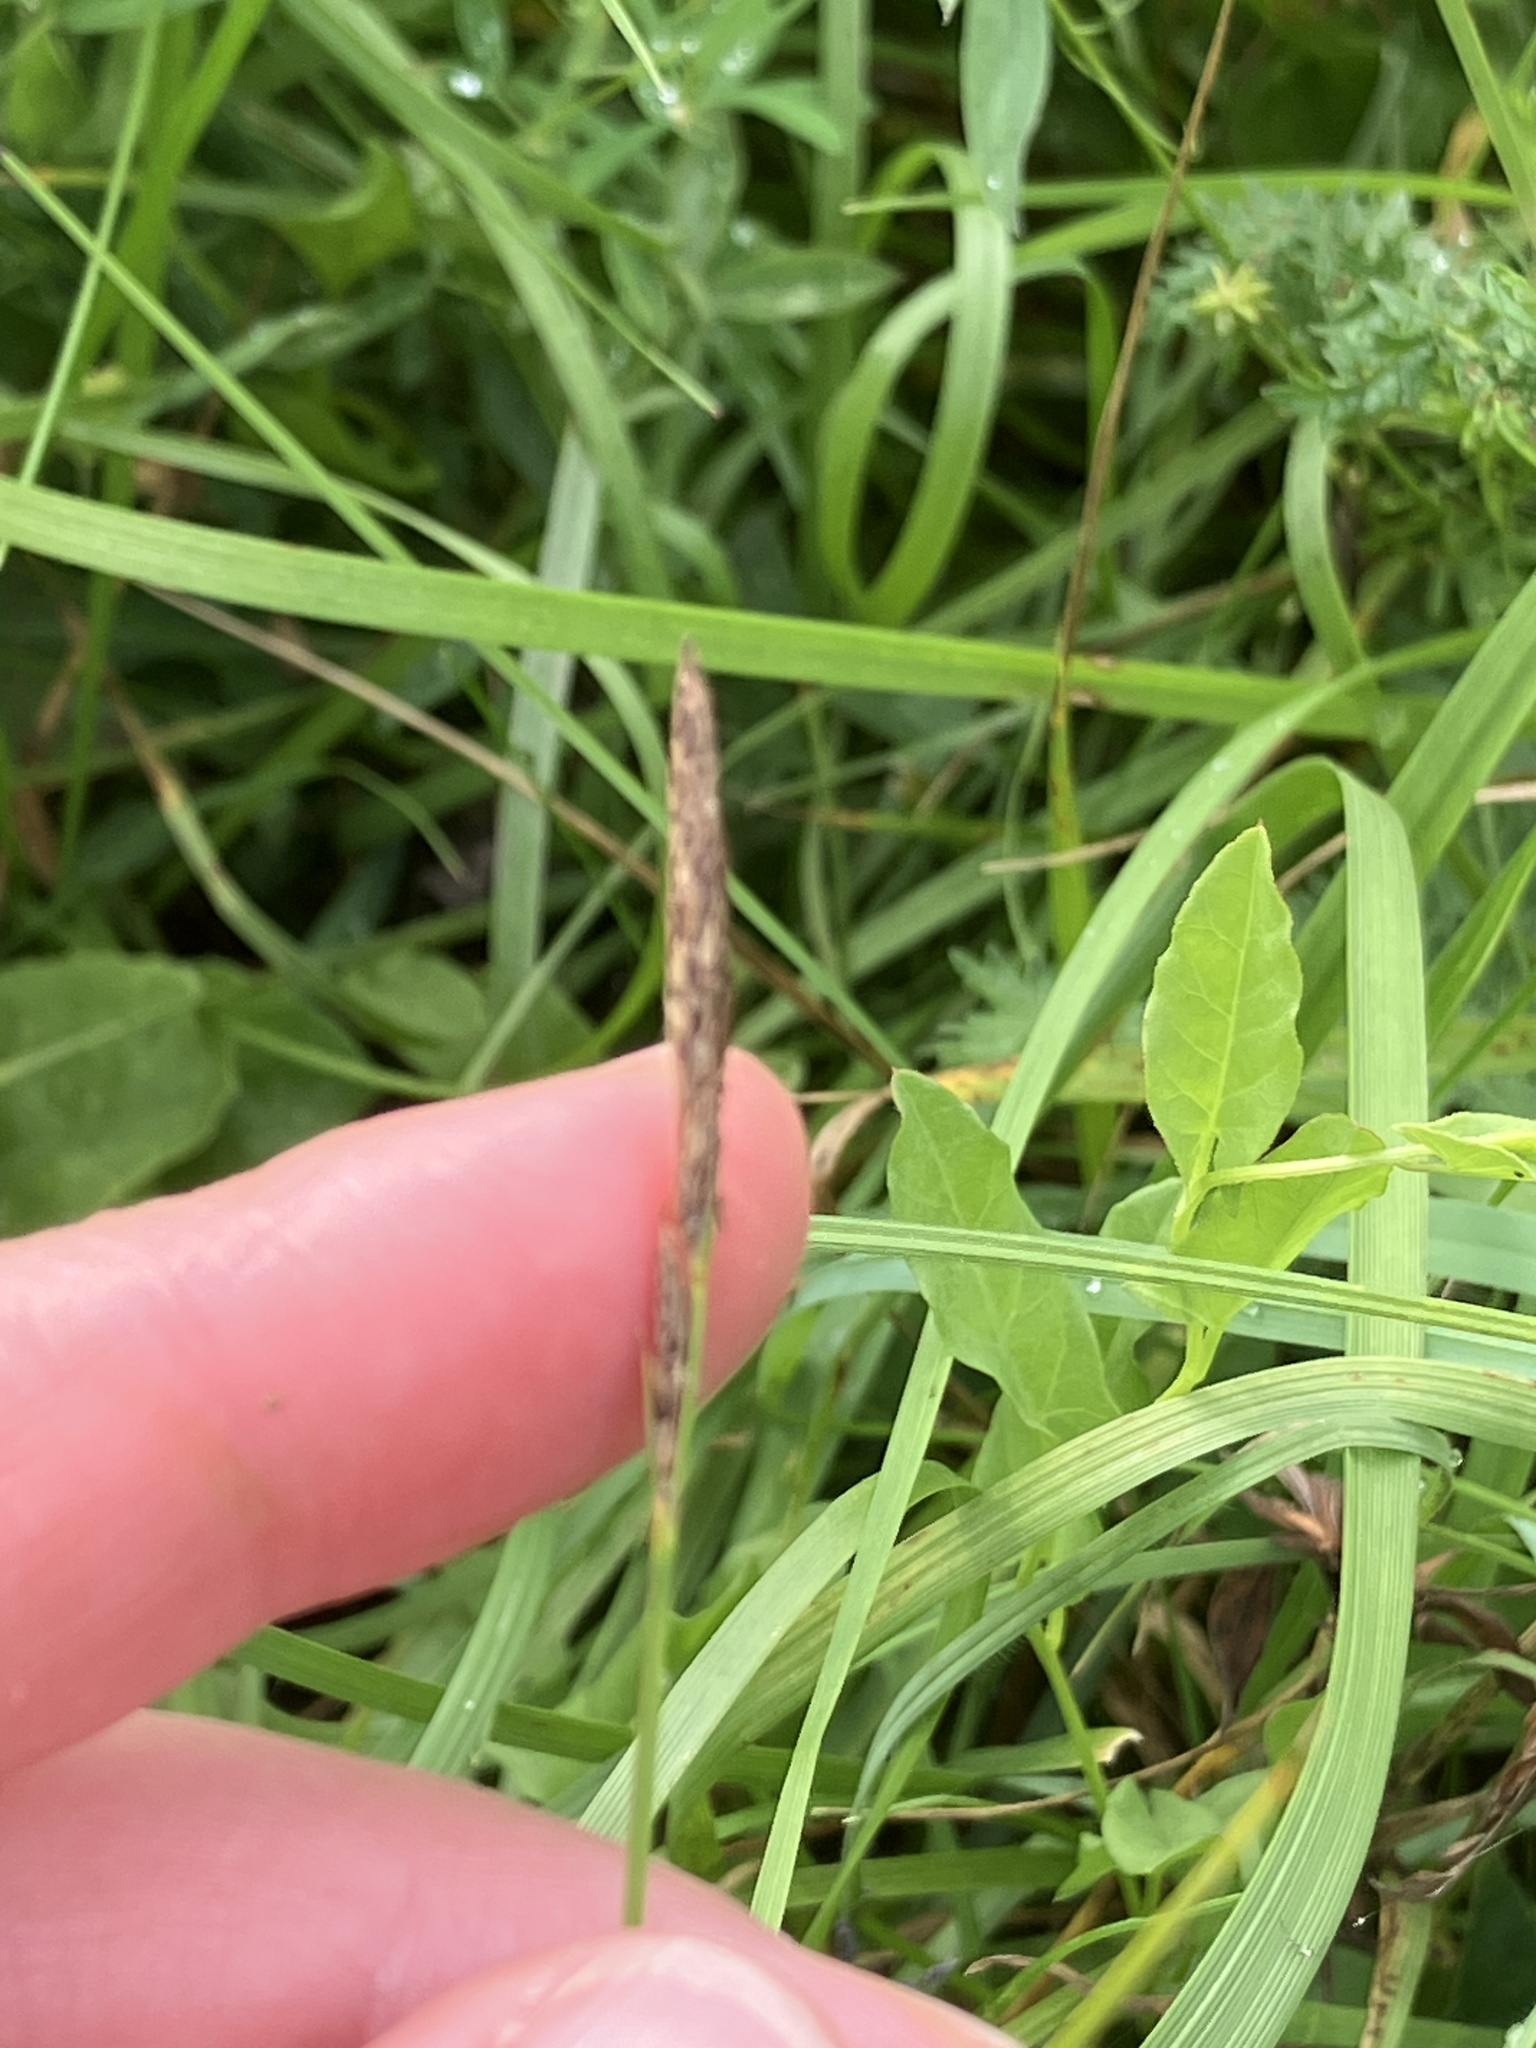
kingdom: Plantae
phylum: Tracheophyta
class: Liliopsida
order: Poales
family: Cyperaceae
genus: Carex
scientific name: Carex hirta
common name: Hairy sedge
